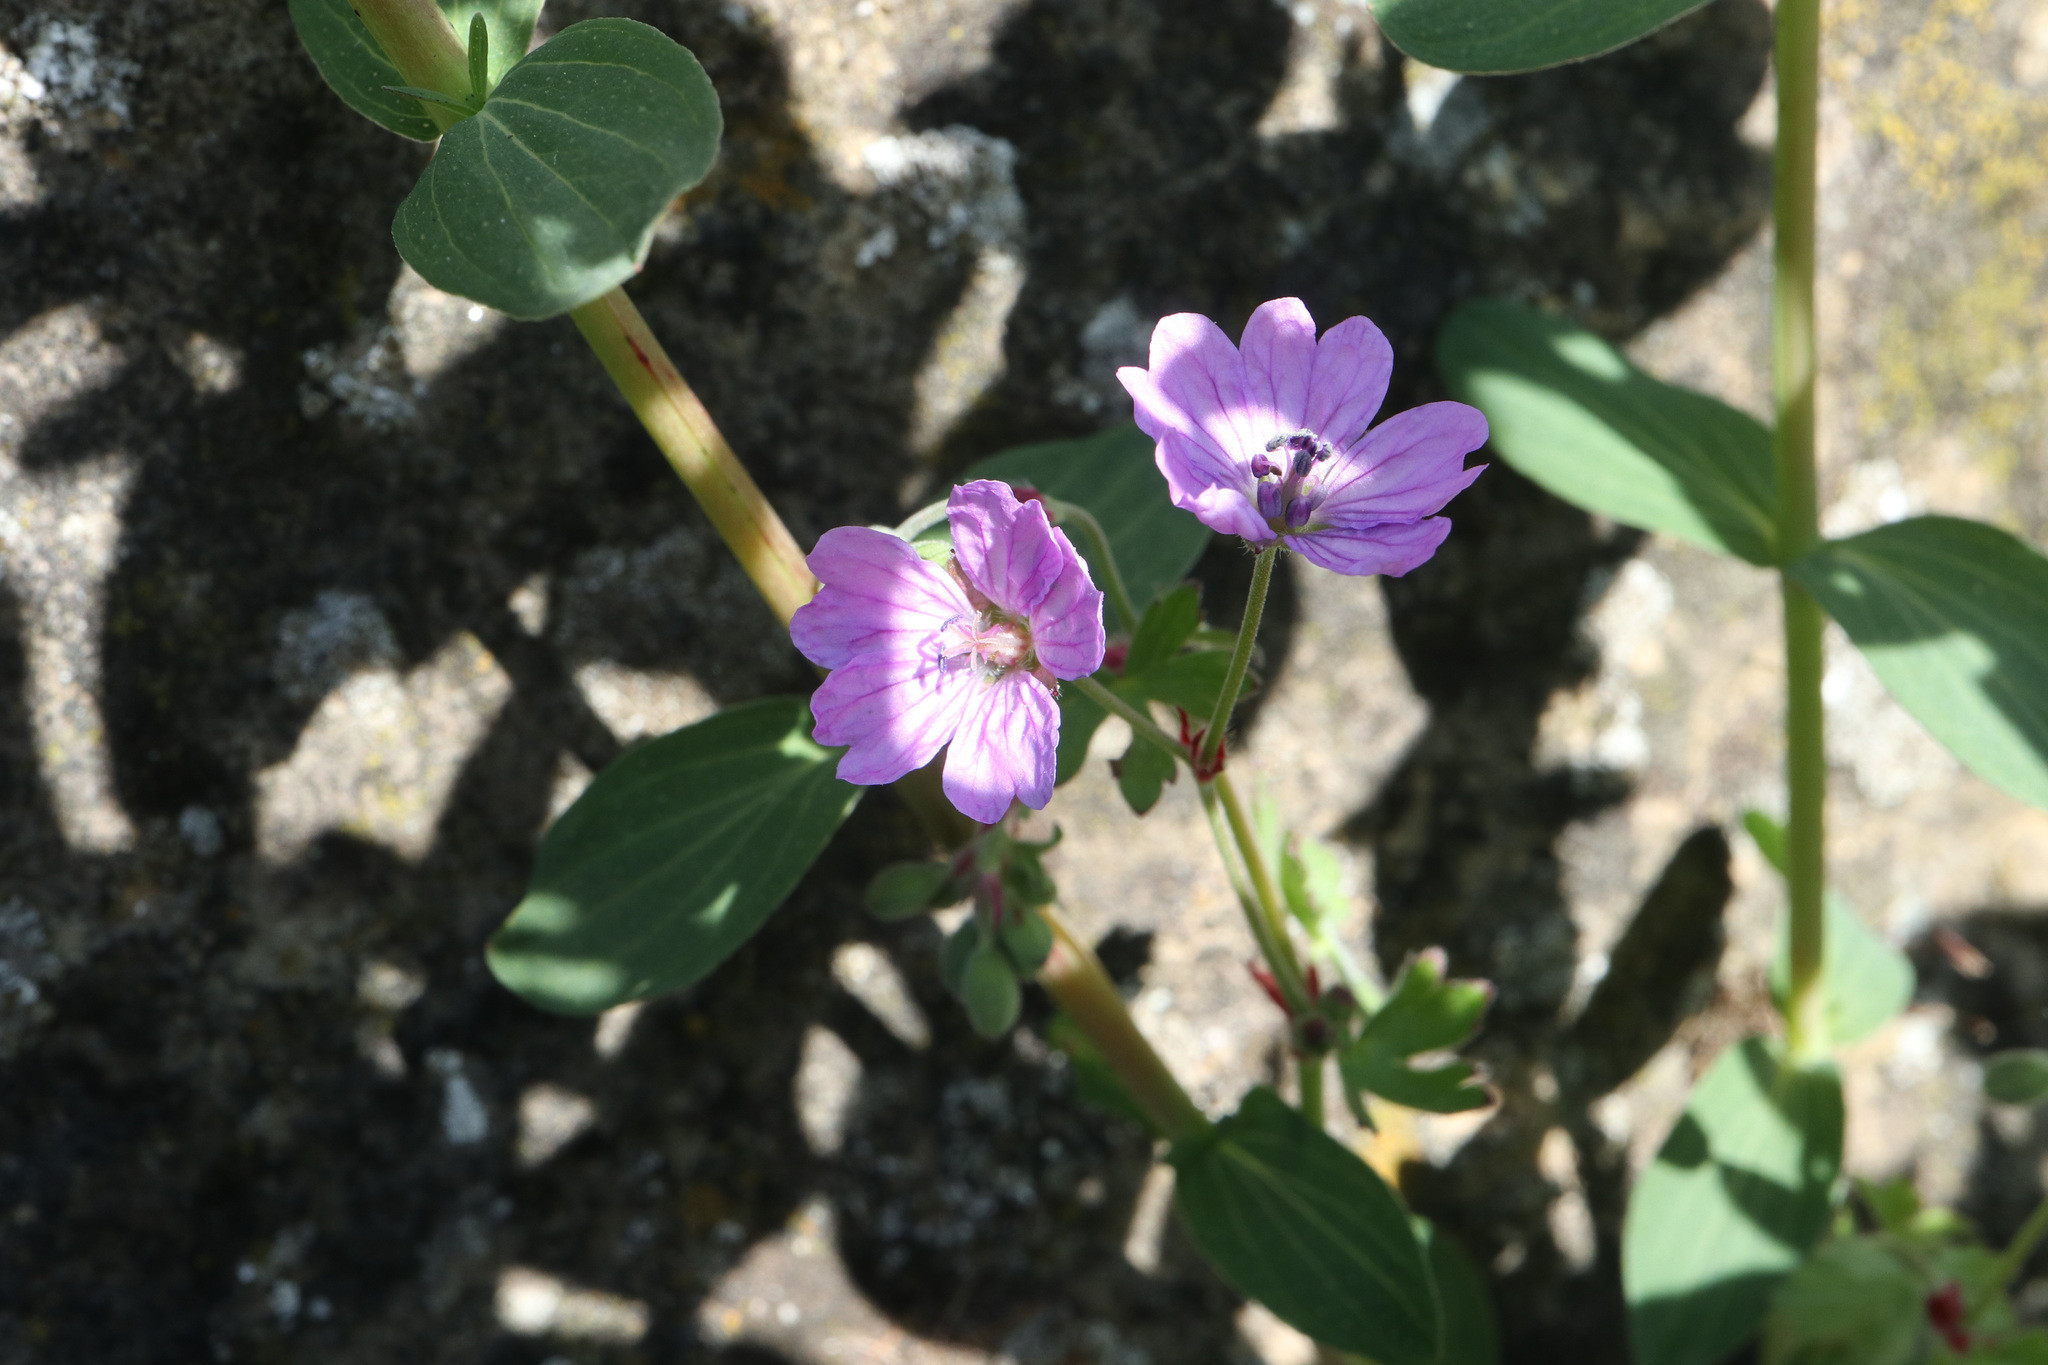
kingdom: Plantae
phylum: Tracheophyta
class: Magnoliopsida
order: Geraniales
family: Geraniaceae
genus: Geranium
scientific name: Geranium pyrenaicum
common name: Hedgerow crane's-bill
